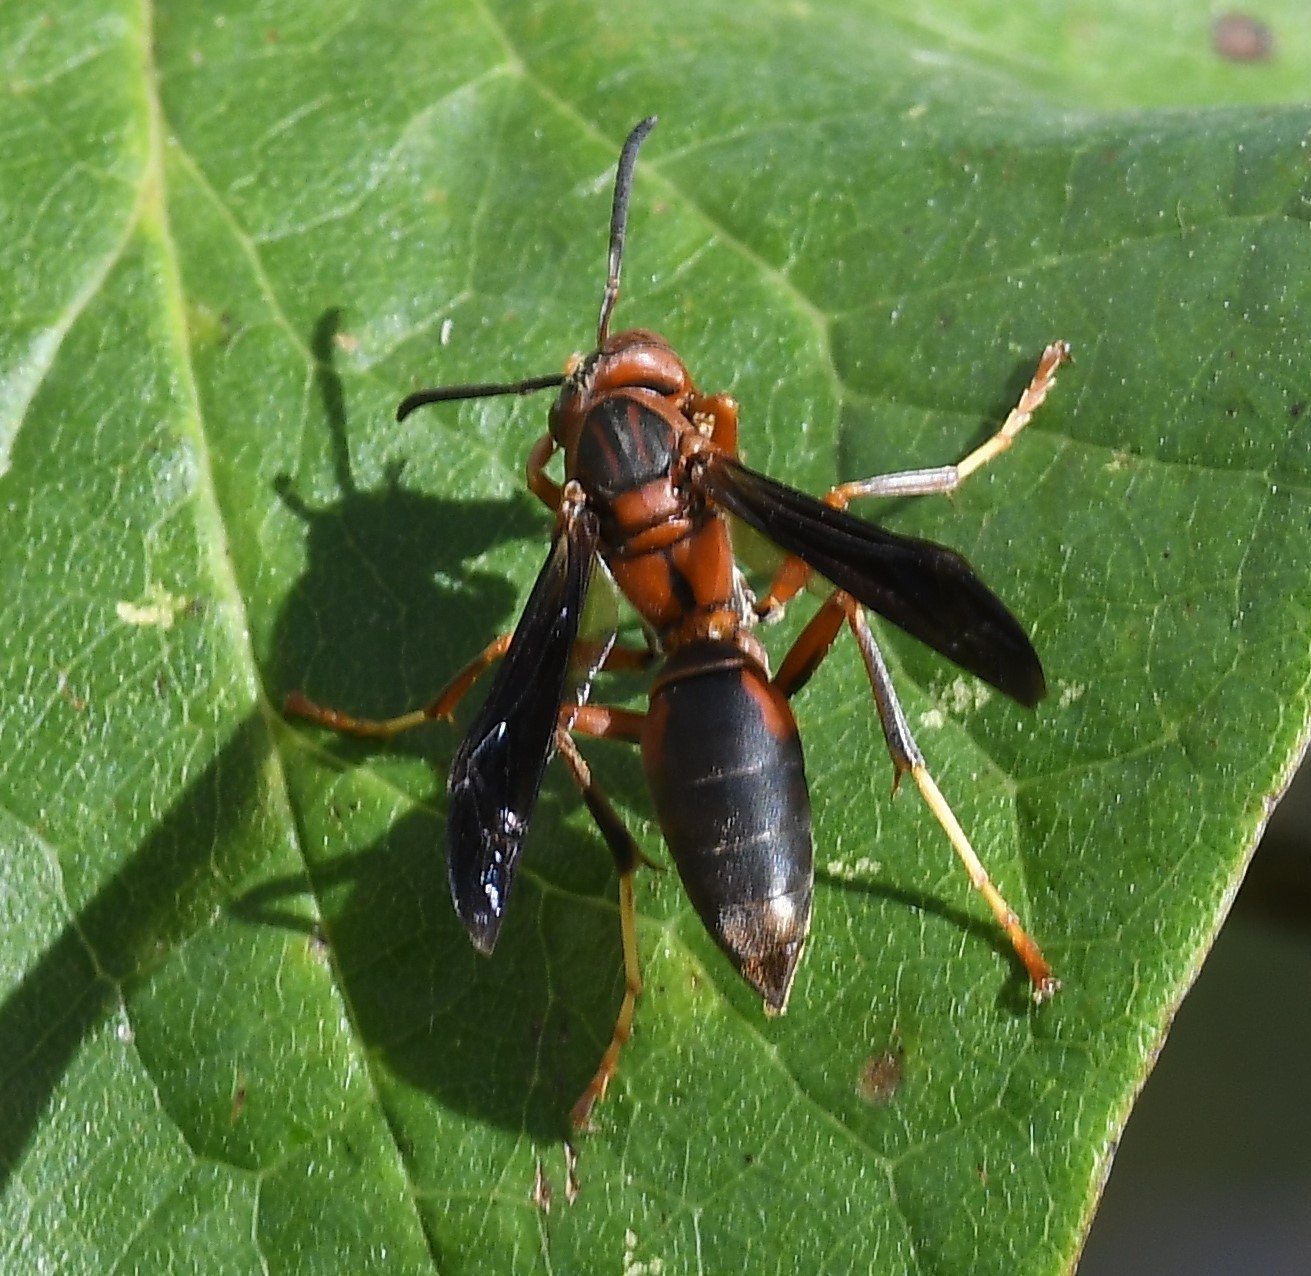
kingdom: Animalia
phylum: Arthropoda
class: Insecta
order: Hymenoptera
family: Eumenidae
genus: Polistes
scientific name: Polistes metricus
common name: Metric paper wasp
